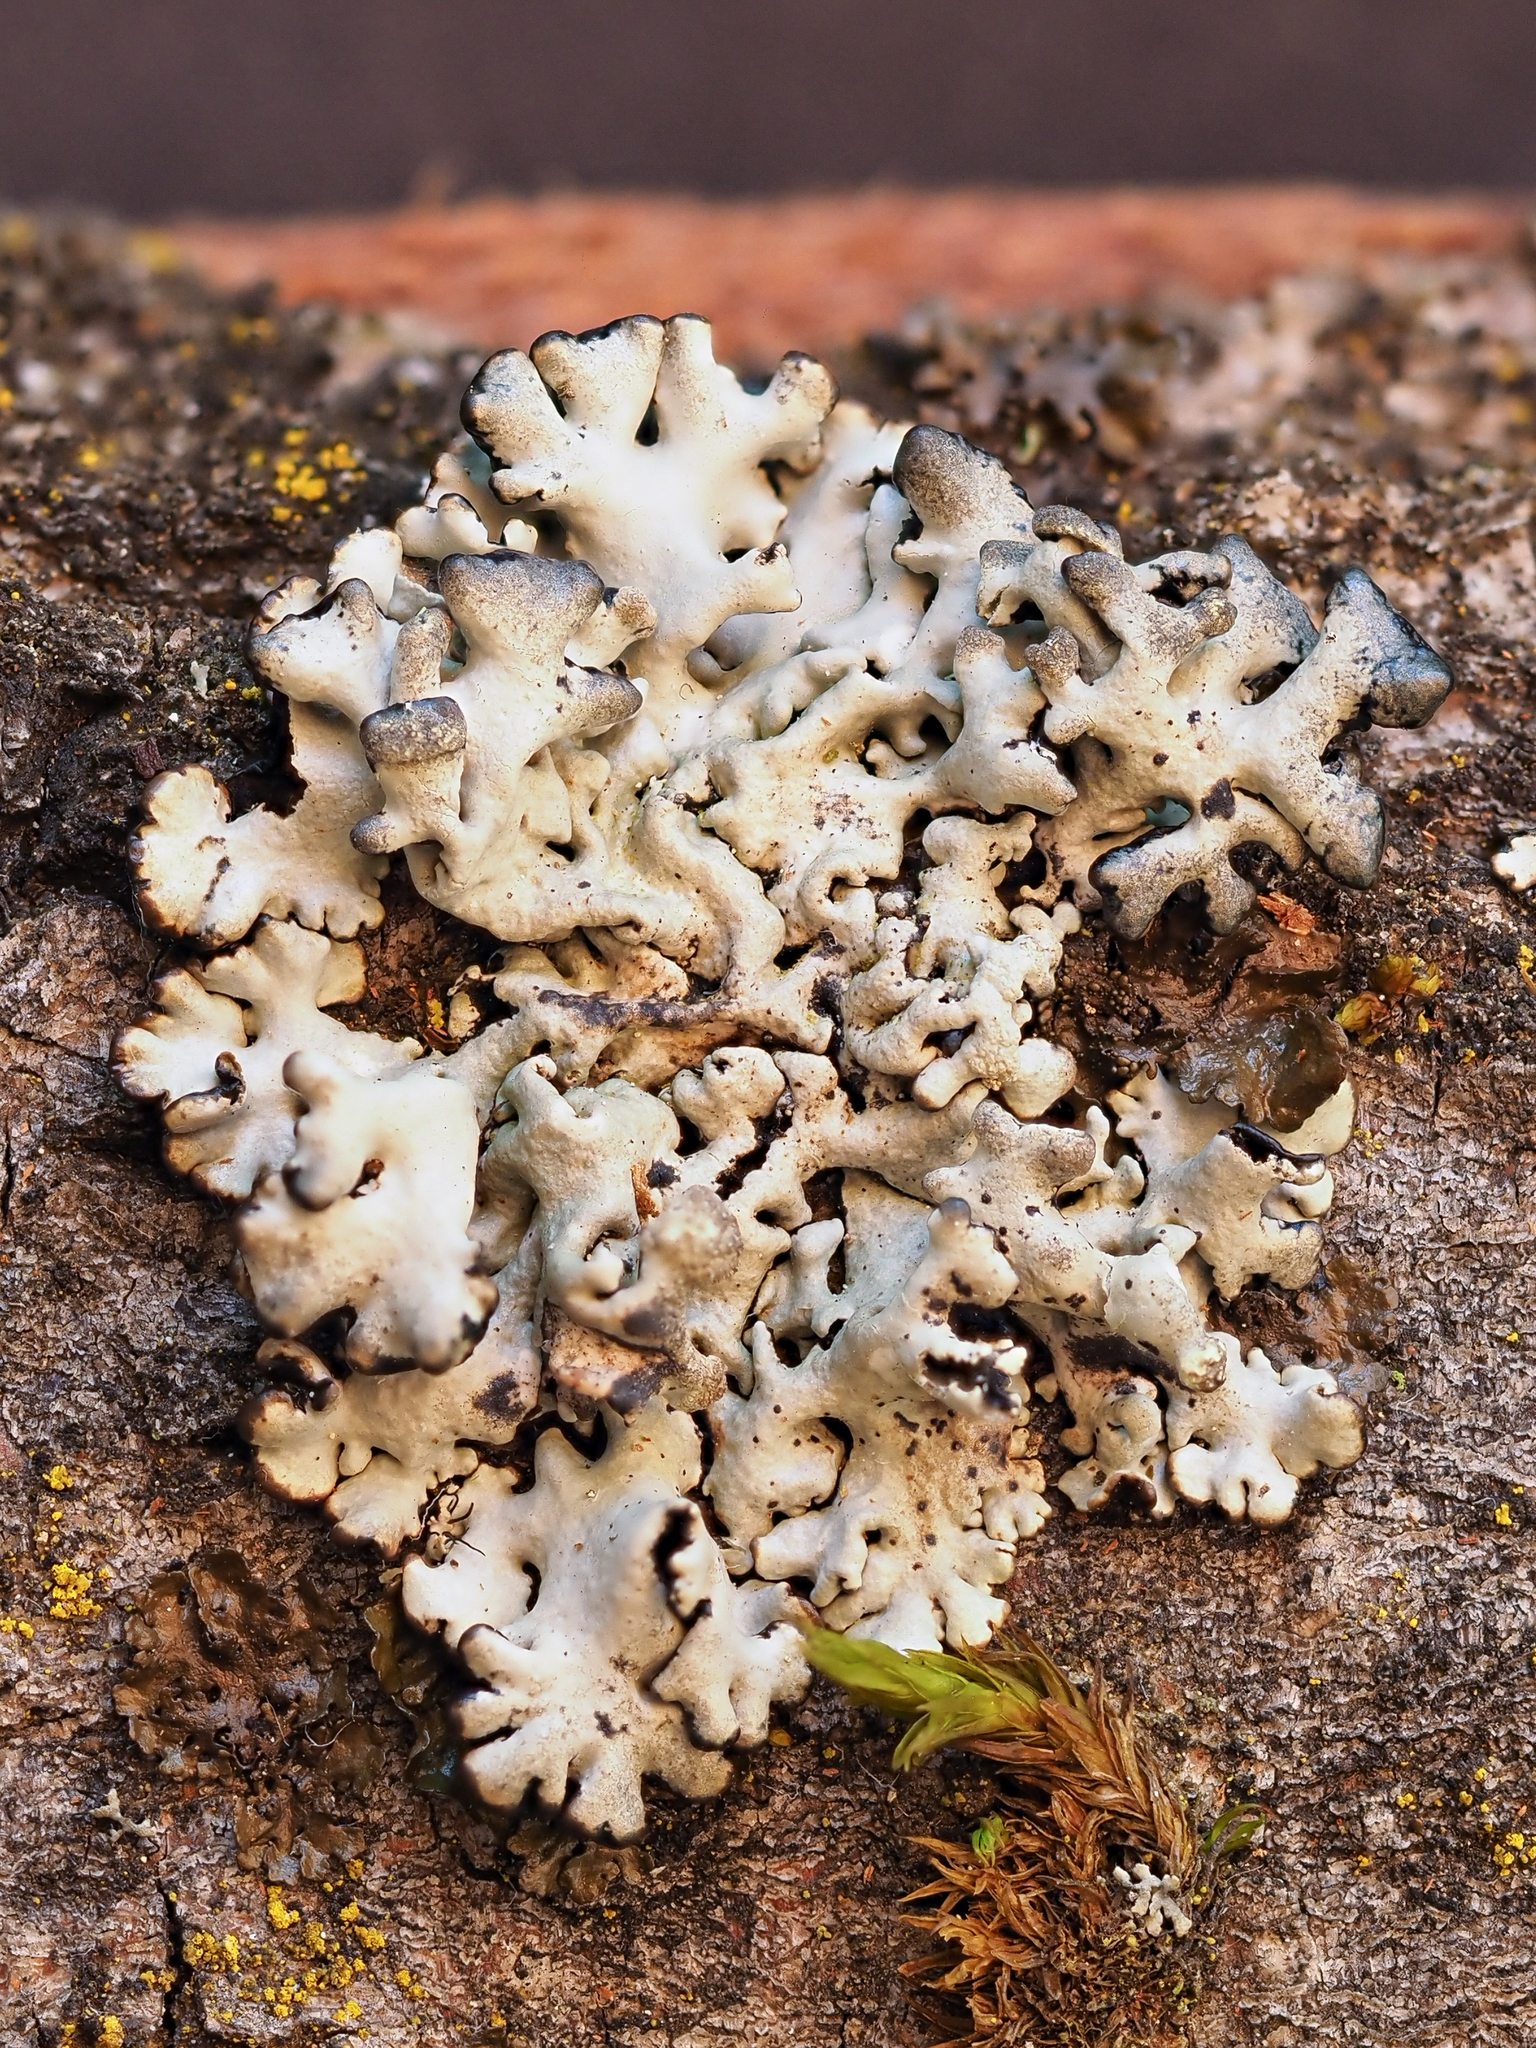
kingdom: Fungi
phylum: Ascomycota
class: Lecanoromycetes
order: Lecanorales
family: Parmeliaceae
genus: Hypogymnia
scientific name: Hypogymnia tubulosa
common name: Powder-headed tube lichen
